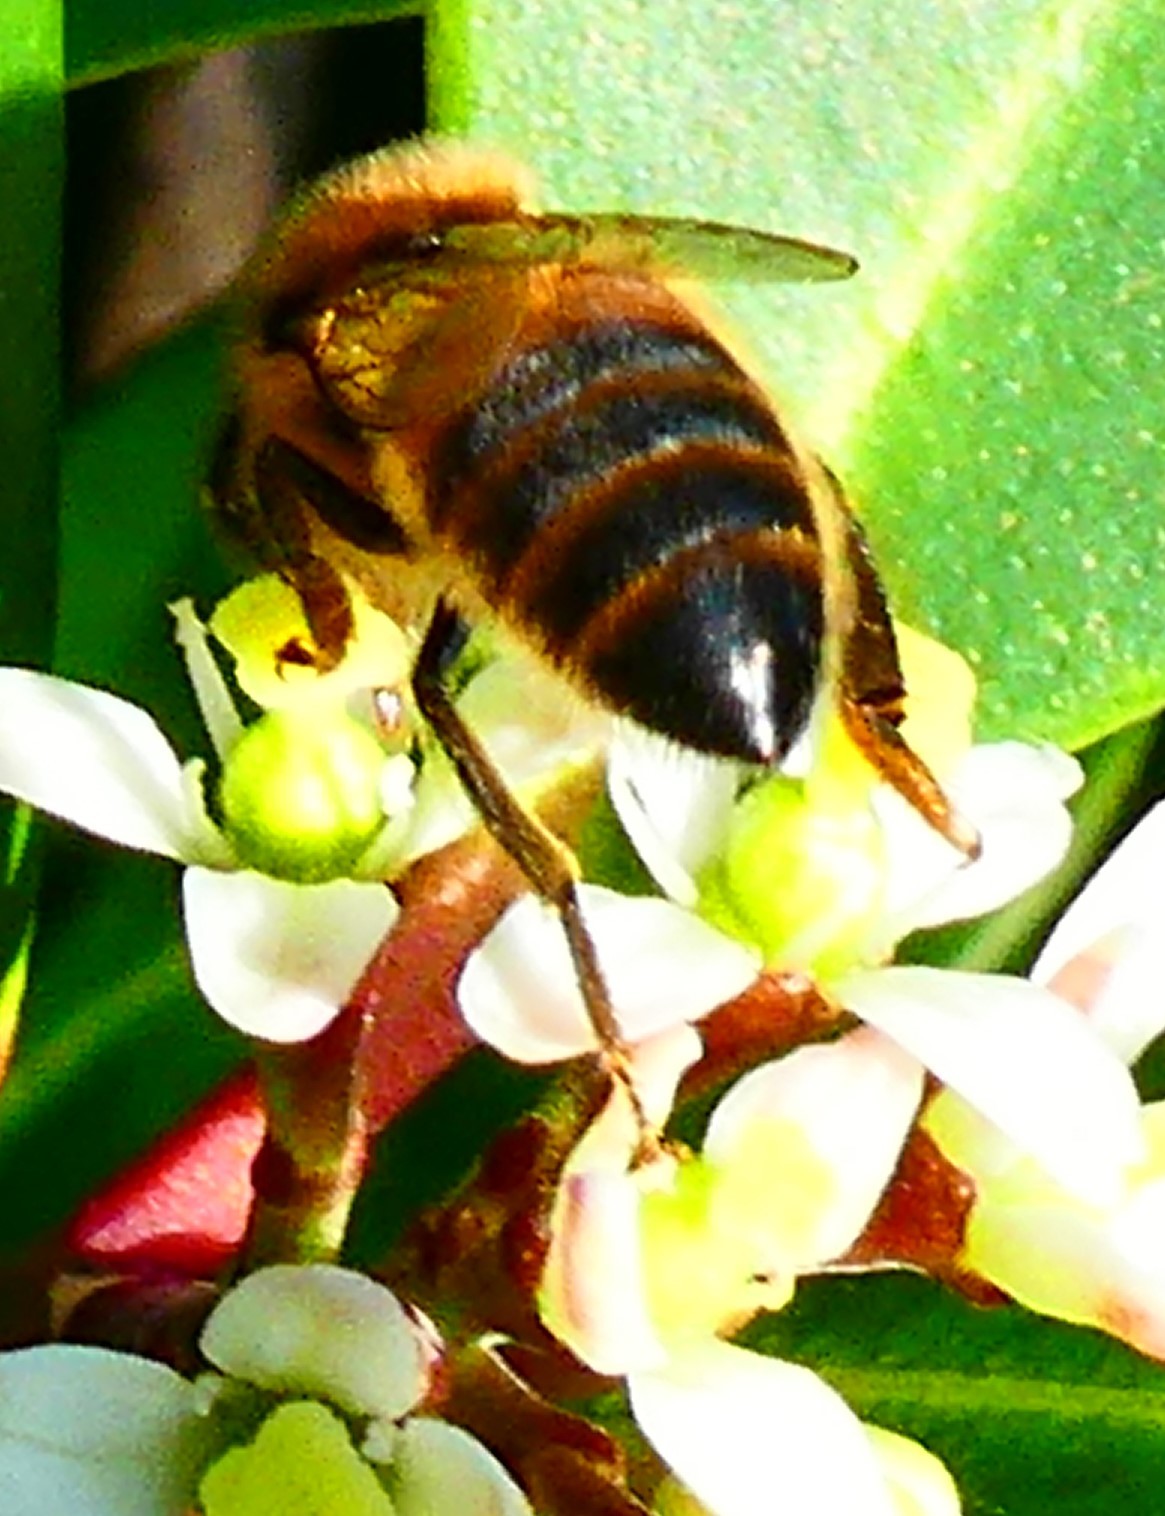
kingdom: Animalia
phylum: Arthropoda
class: Insecta
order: Hymenoptera
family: Apidae
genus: Apis
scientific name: Apis mellifera
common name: Honey bee
